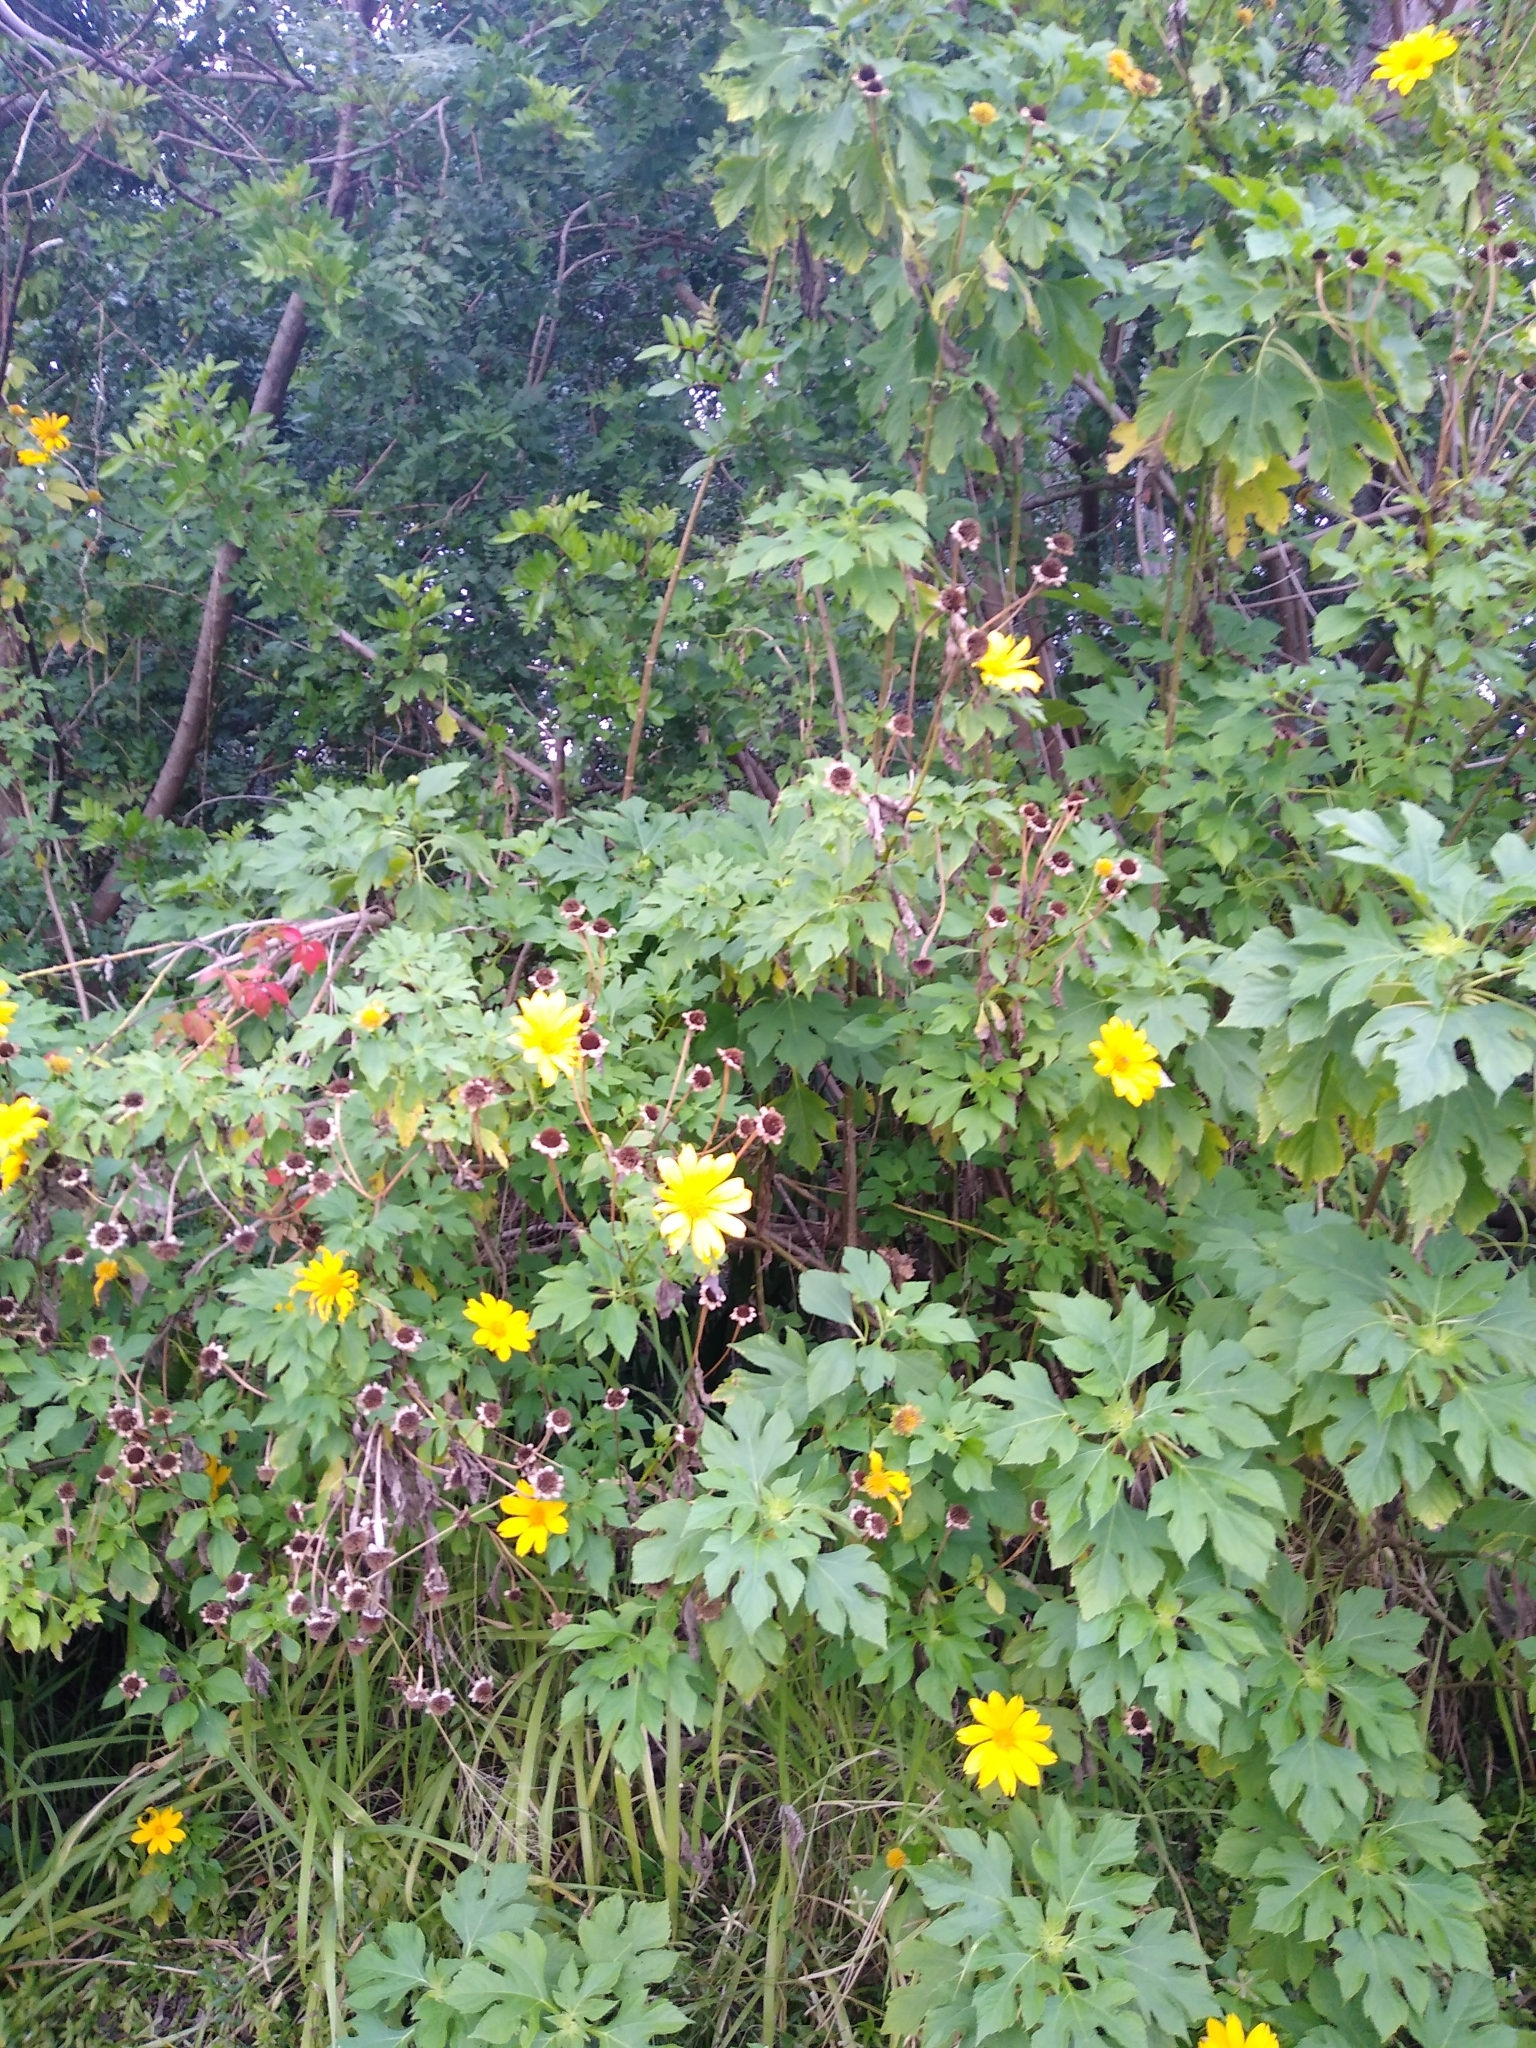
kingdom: Plantae
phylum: Tracheophyta
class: Magnoliopsida
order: Asterales
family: Asteraceae
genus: Tithonia
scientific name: Tithonia diversifolia
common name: Tree marigold
